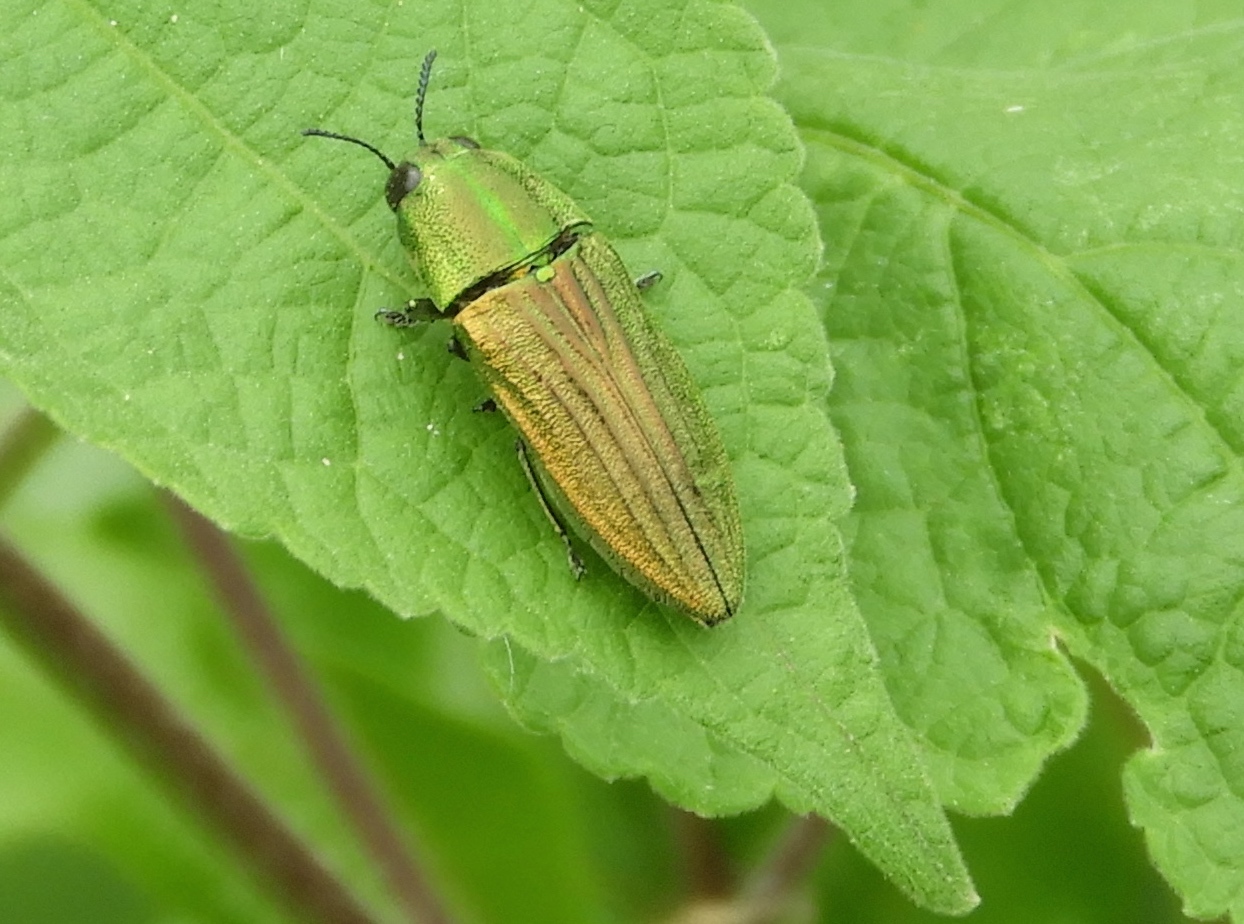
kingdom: Animalia
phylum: Arthropoda
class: Insecta
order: Coleoptera
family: Buprestidae
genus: Agaeocera
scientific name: Agaeocera scintillans
